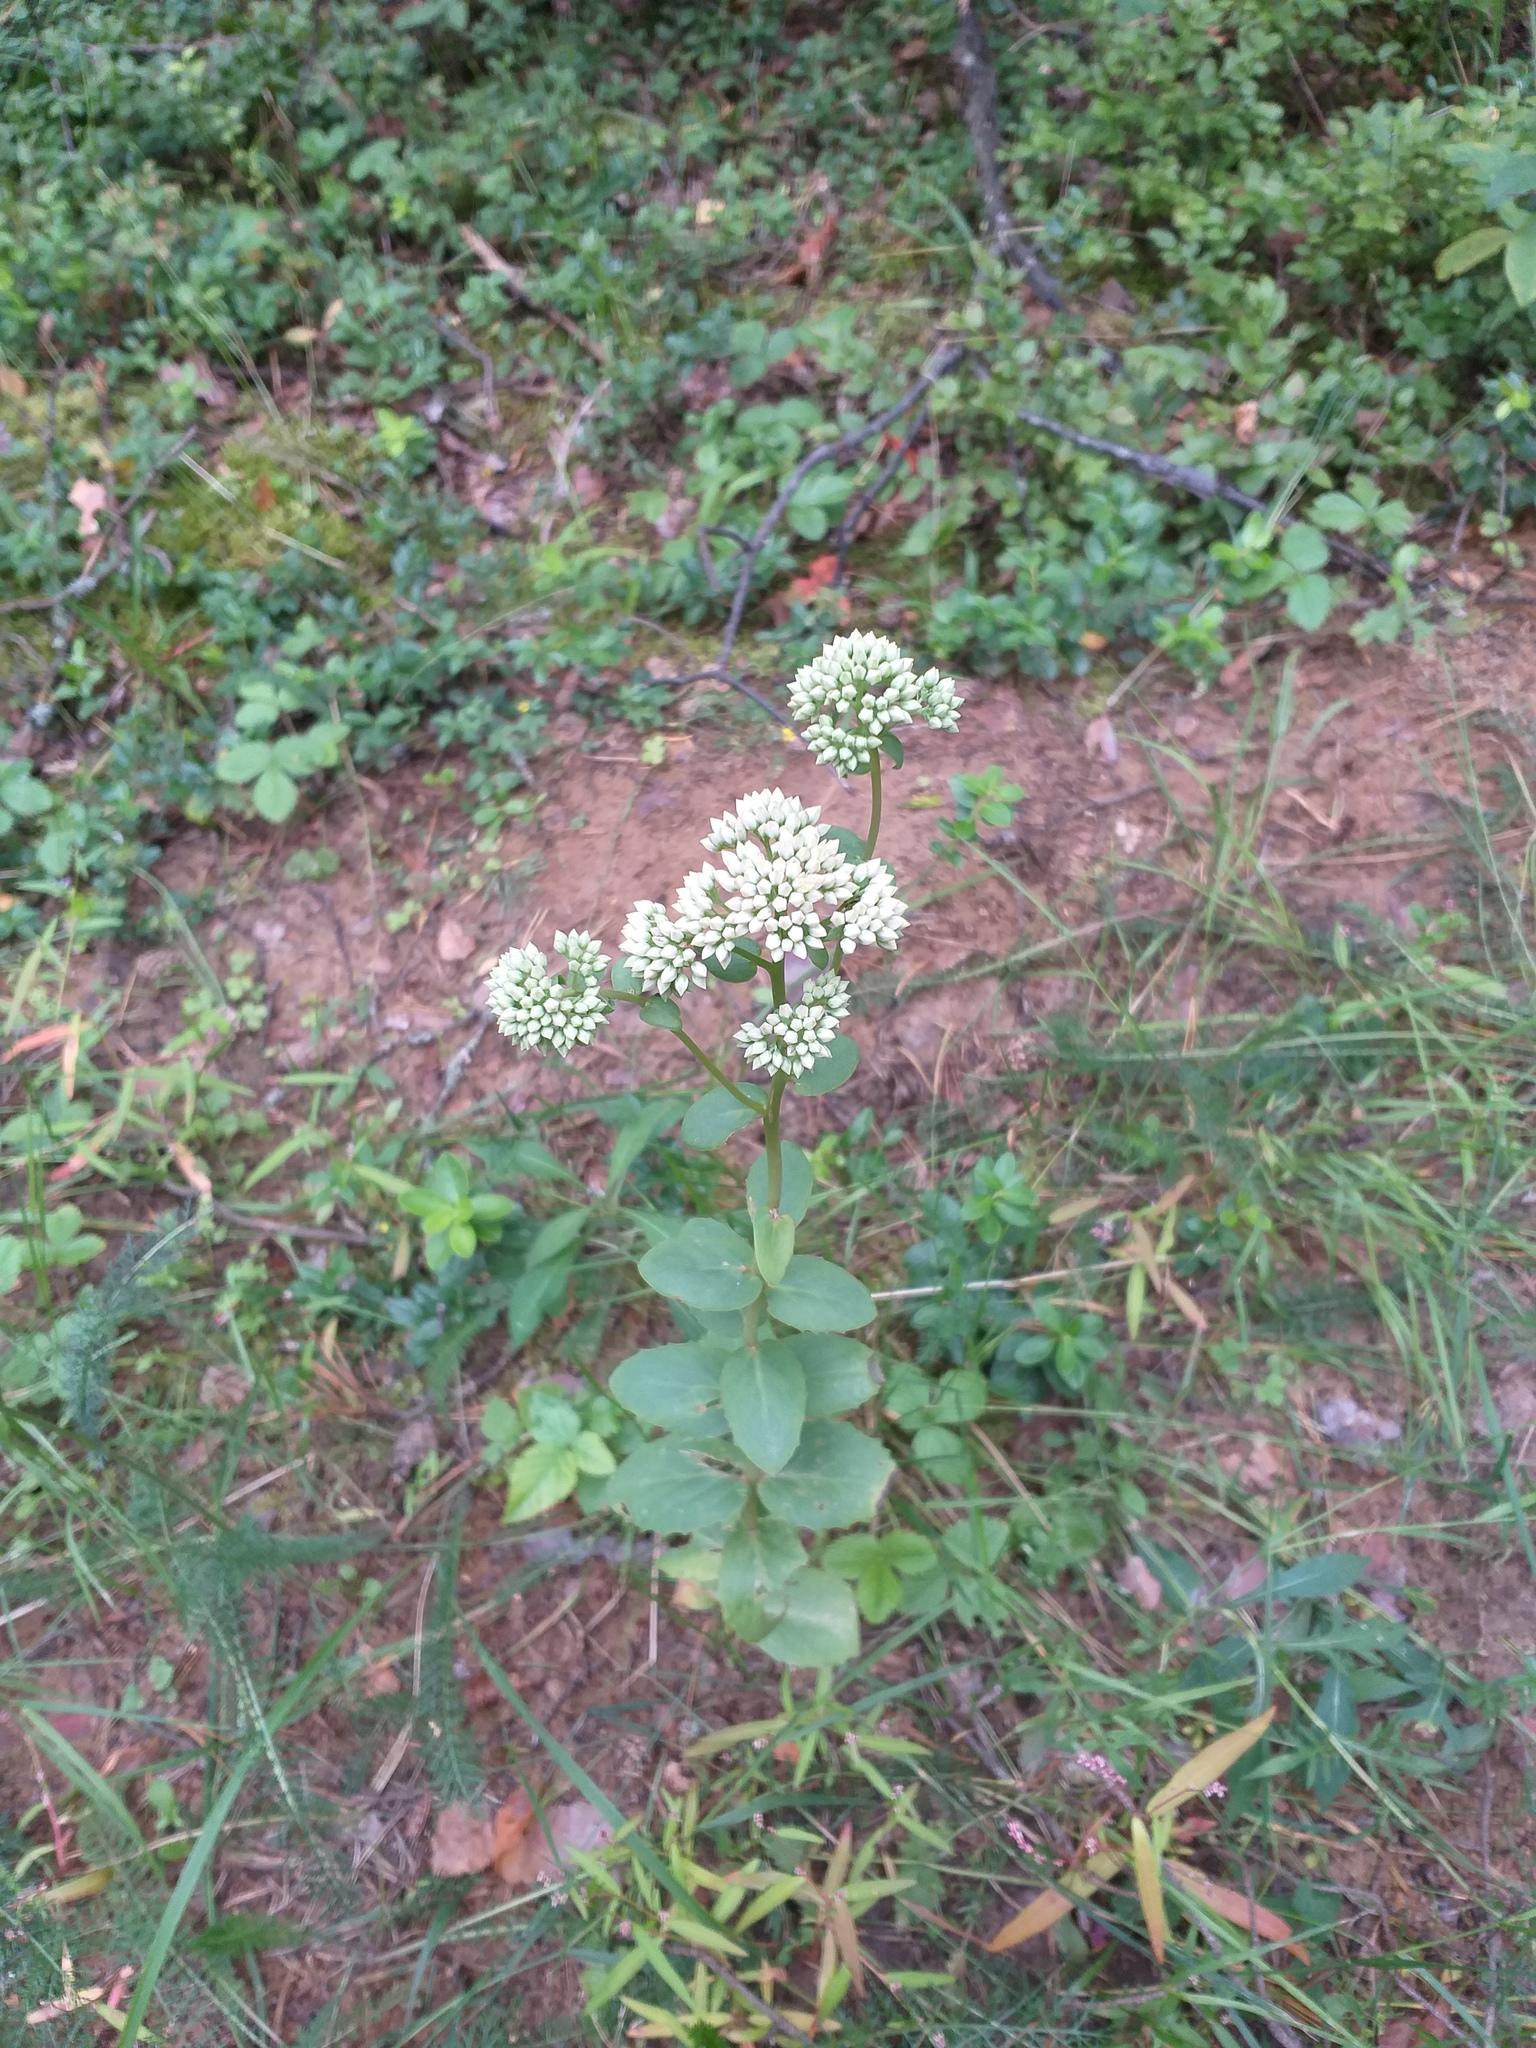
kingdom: Plantae
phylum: Tracheophyta
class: Magnoliopsida
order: Saxifragales
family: Crassulaceae
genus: Hylotelephium
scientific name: Hylotelephium maximum
